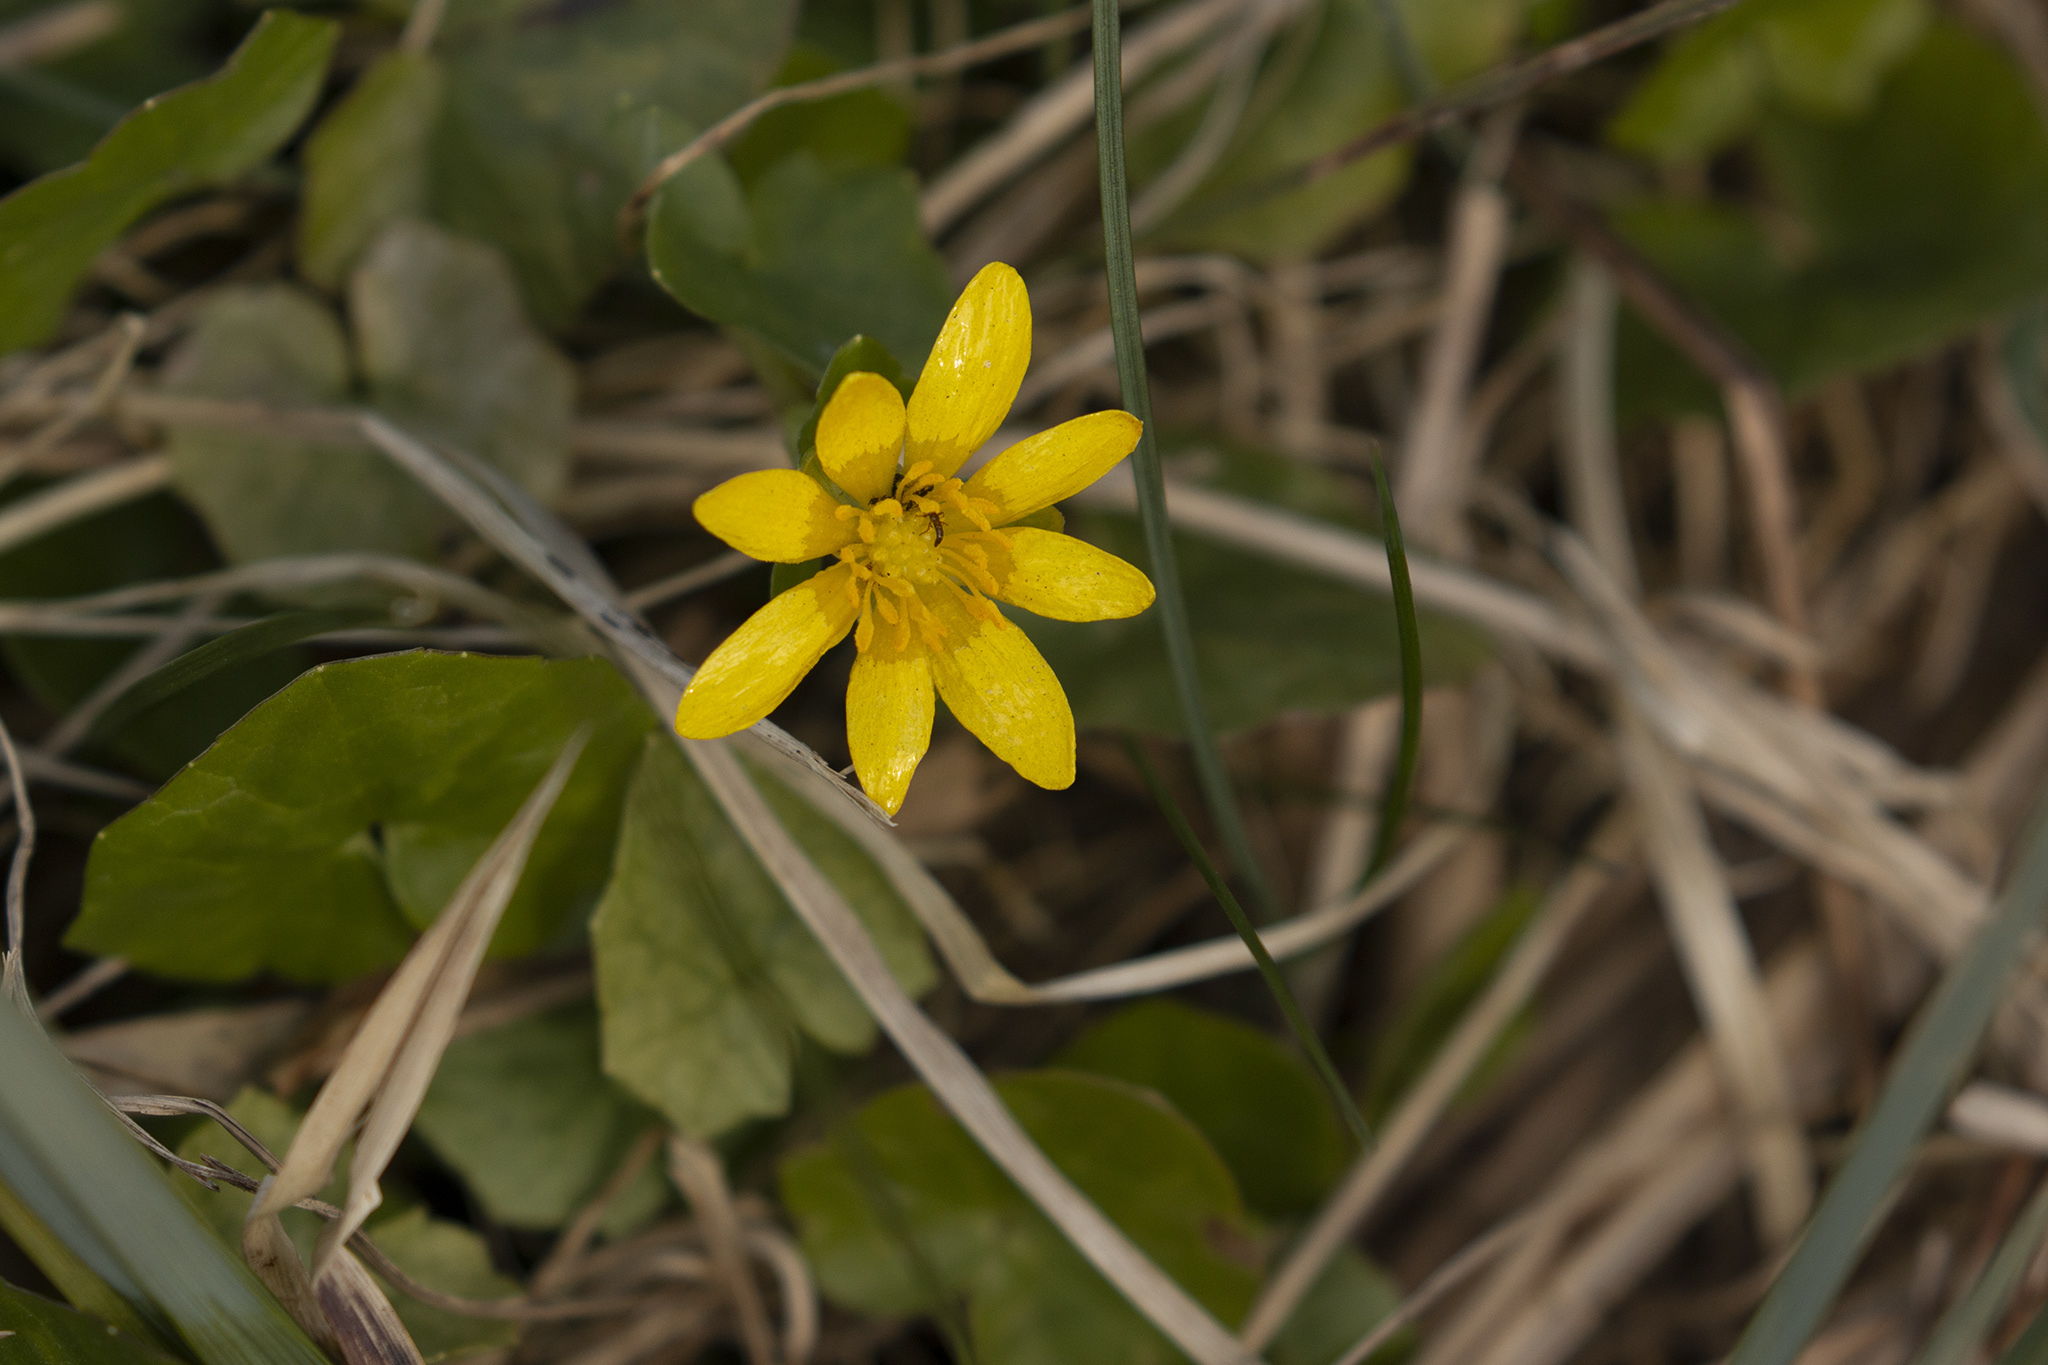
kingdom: Plantae
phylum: Tracheophyta
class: Magnoliopsida
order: Ranunculales
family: Ranunculaceae
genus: Ficaria
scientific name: Ficaria verna
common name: Lesser celandine
